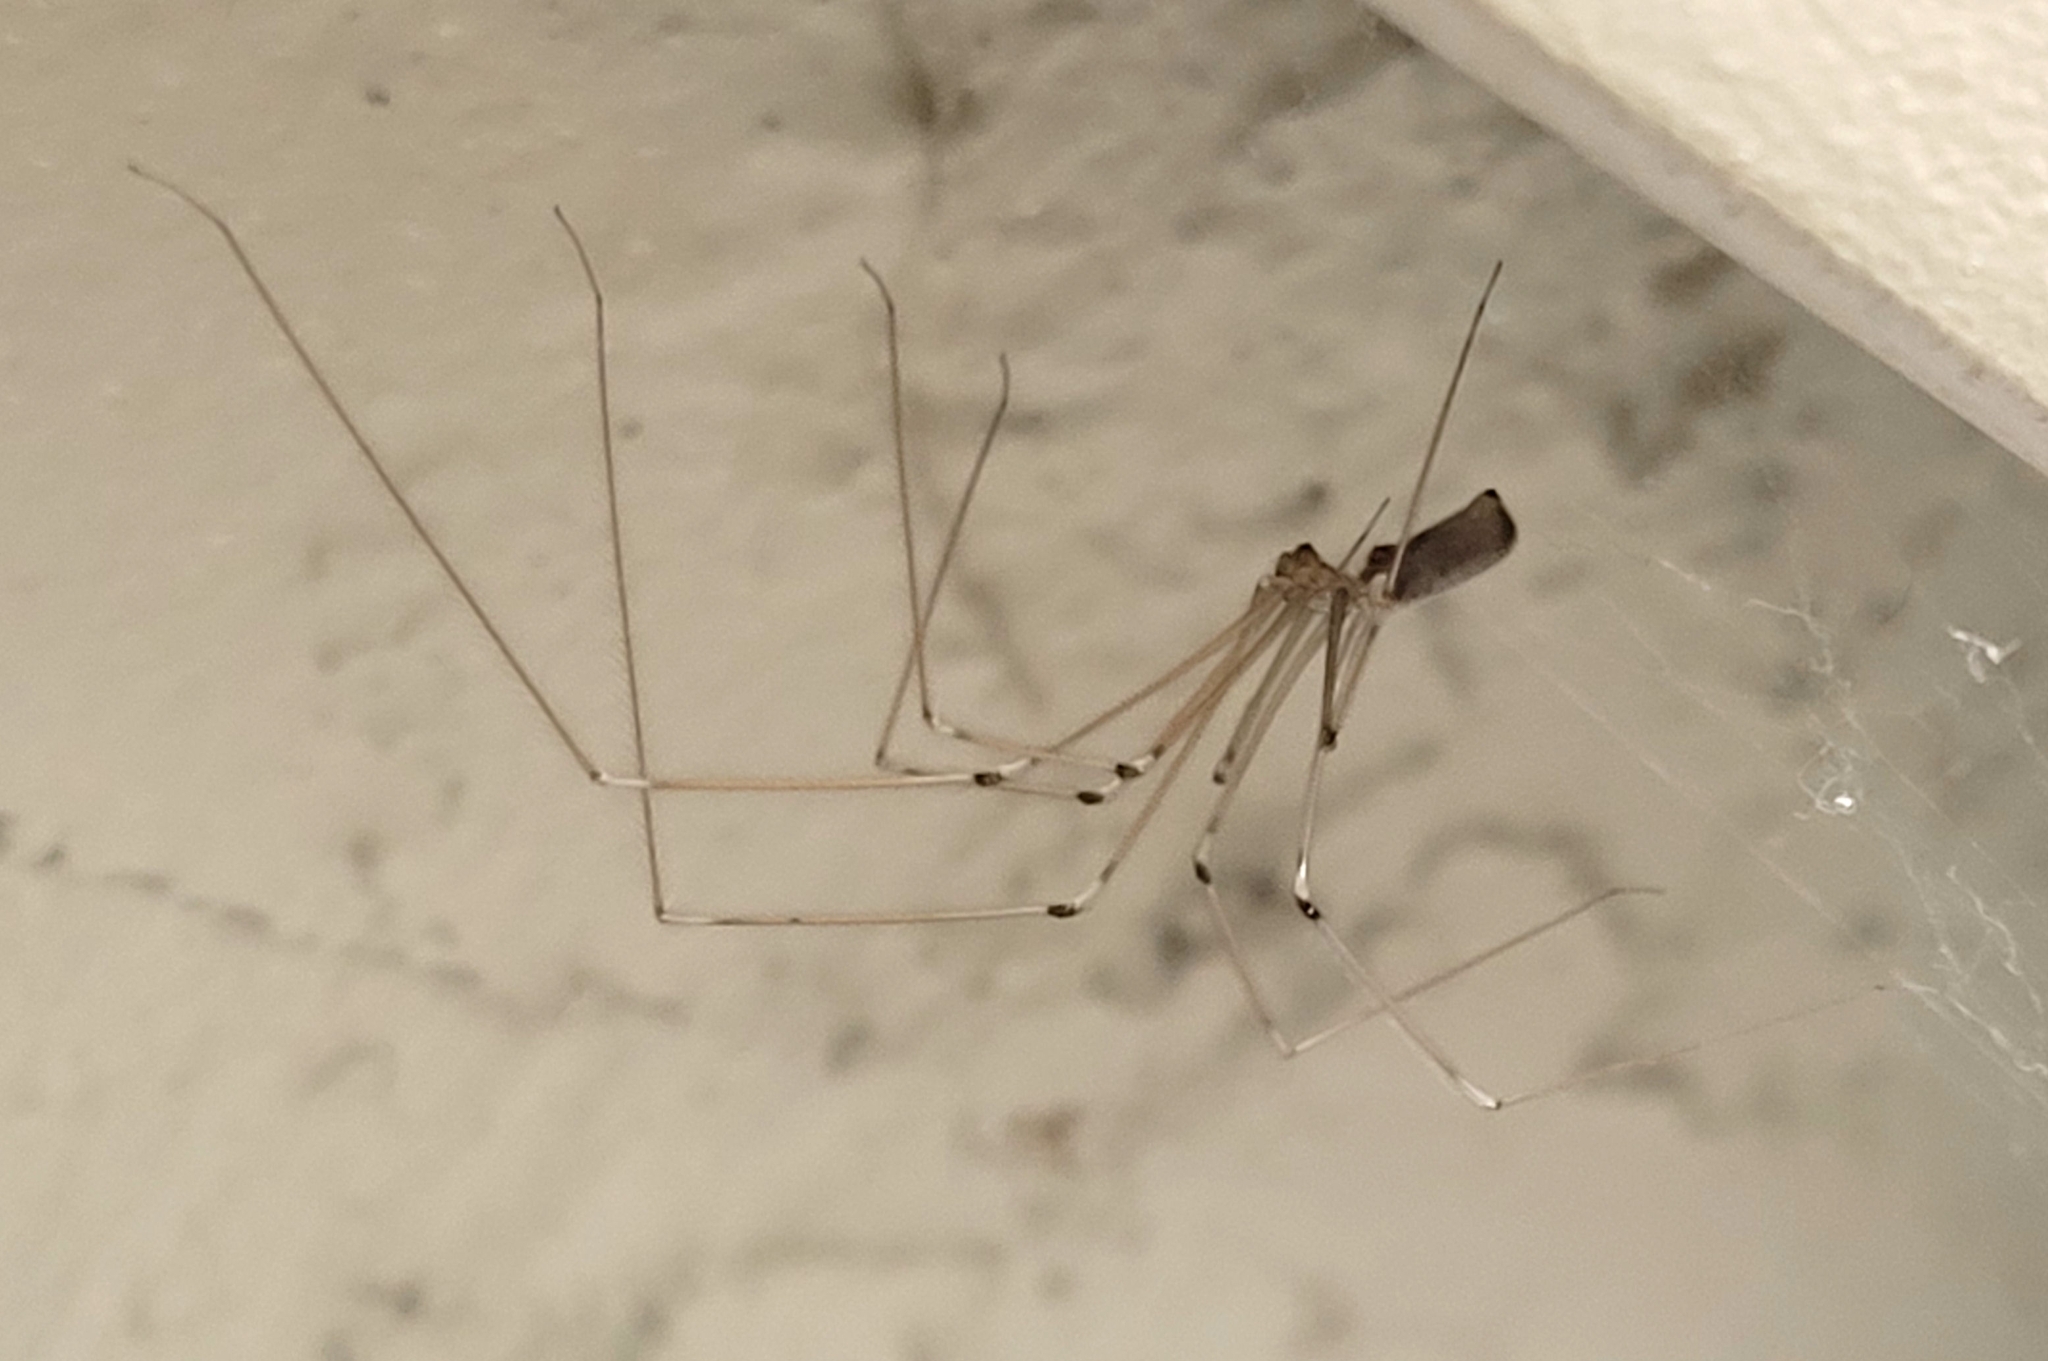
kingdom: Animalia
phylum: Arthropoda
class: Arachnida
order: Araneae
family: Pholcidae
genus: Pholcus
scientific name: Pholcus phalangioides
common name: Longbodied cellar spider
